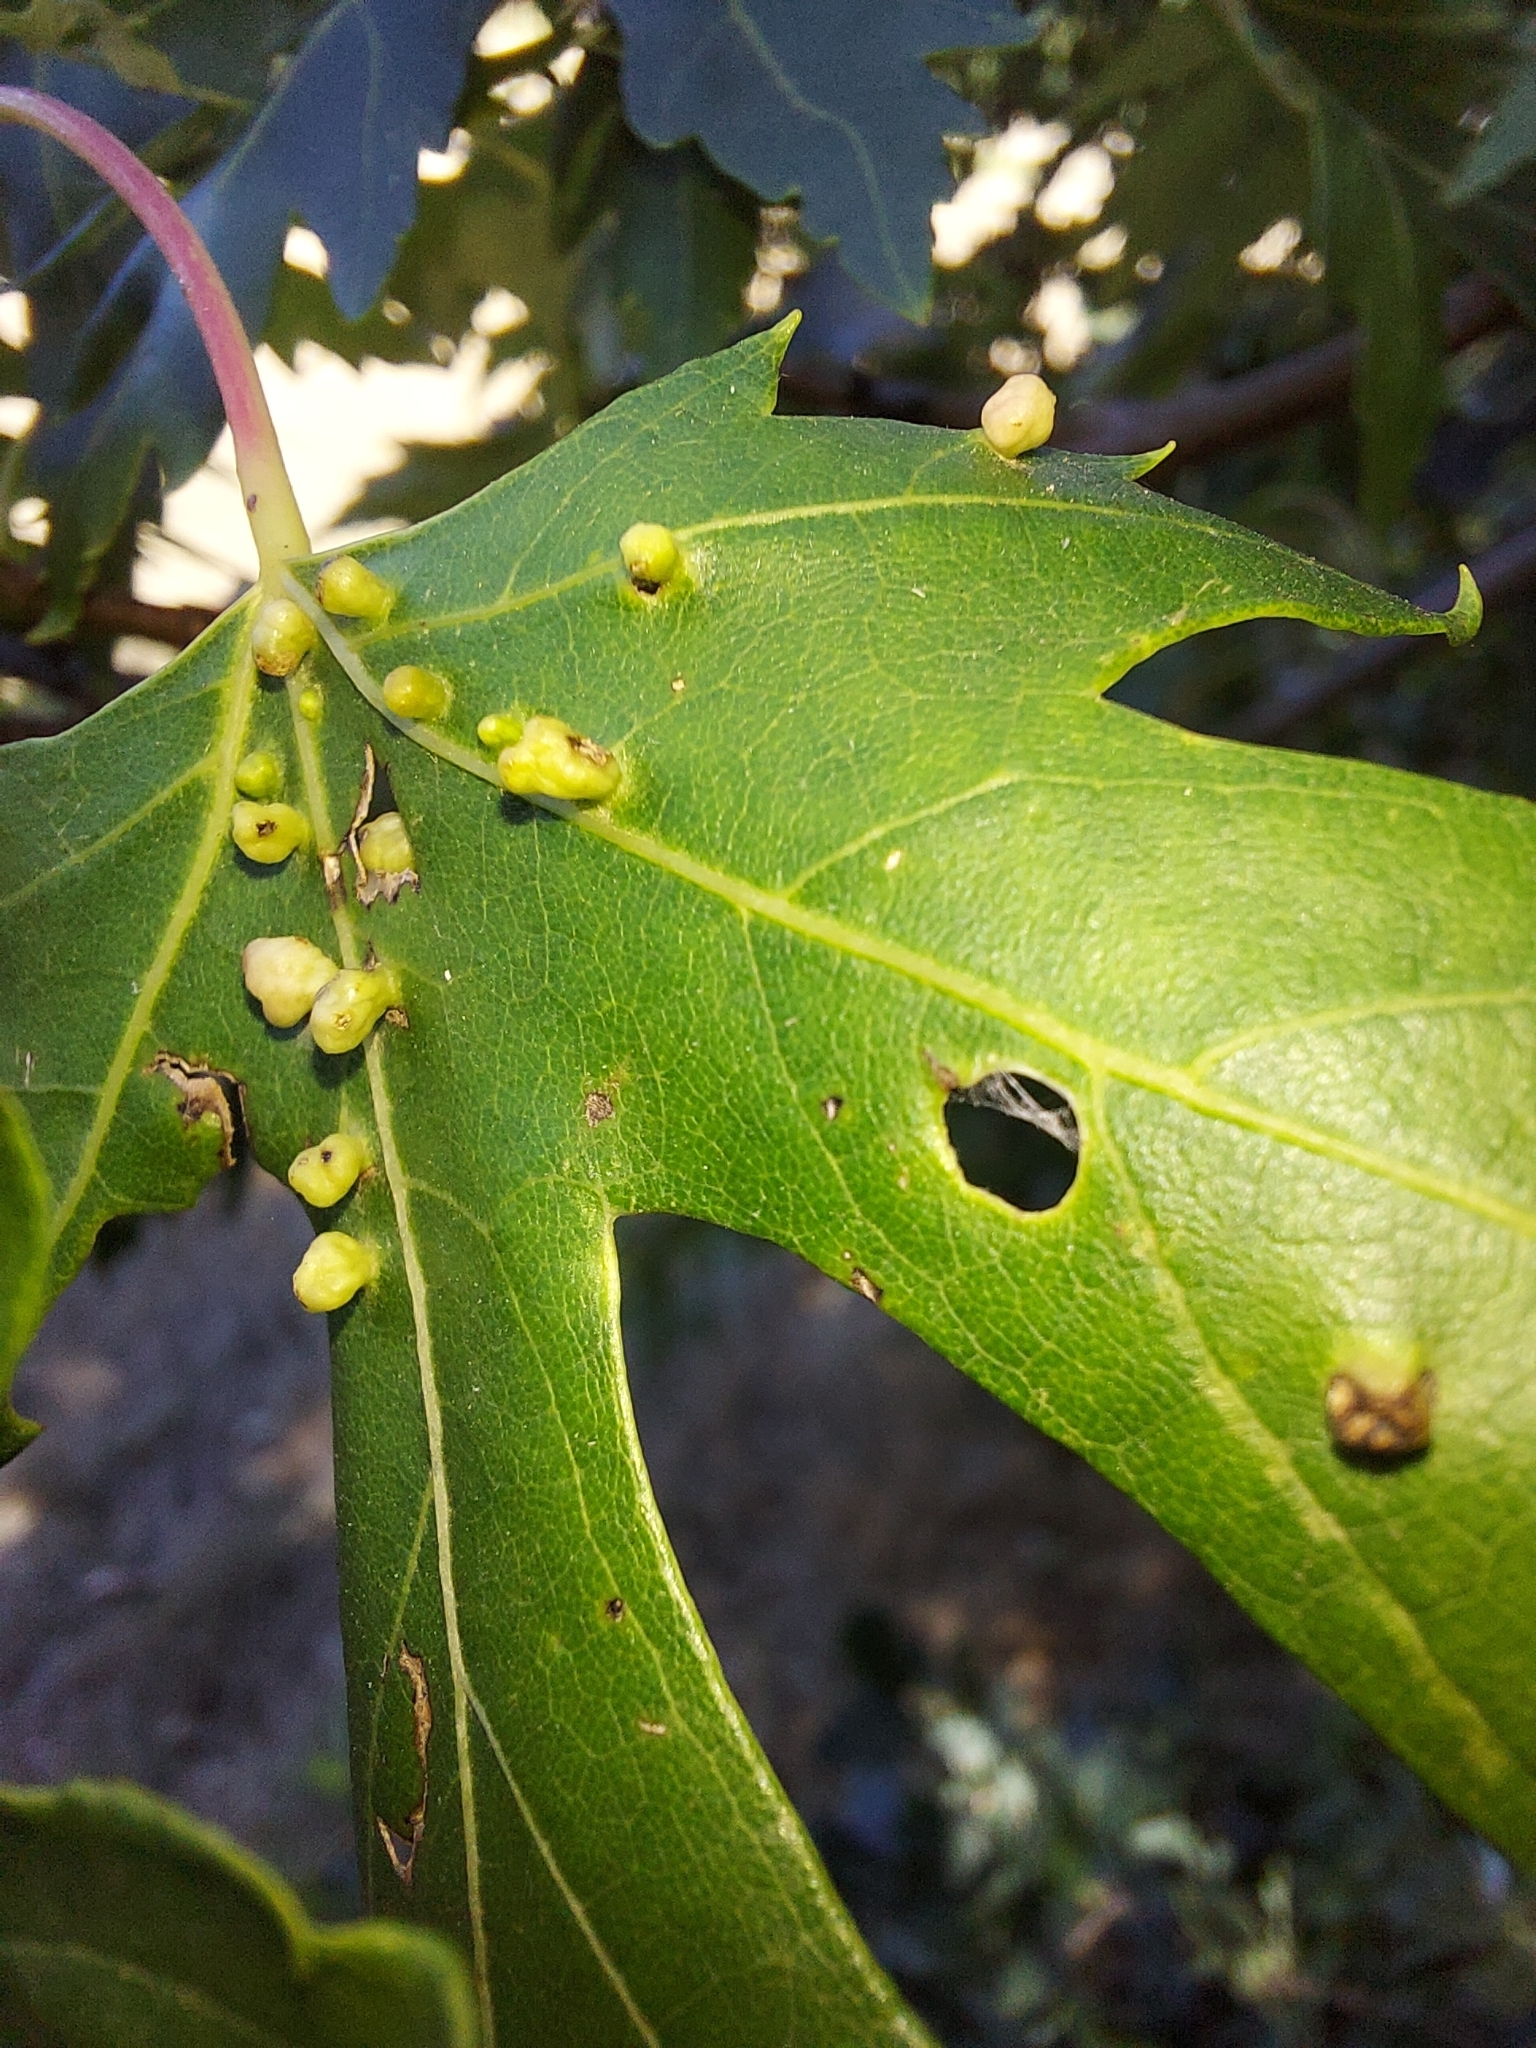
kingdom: Animalia
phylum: Arthropoda
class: Arachnida
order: Trombidiformes
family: Eriophyidae
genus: Vasates
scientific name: Vasates quadripedes
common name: Maple bladder gall mite
